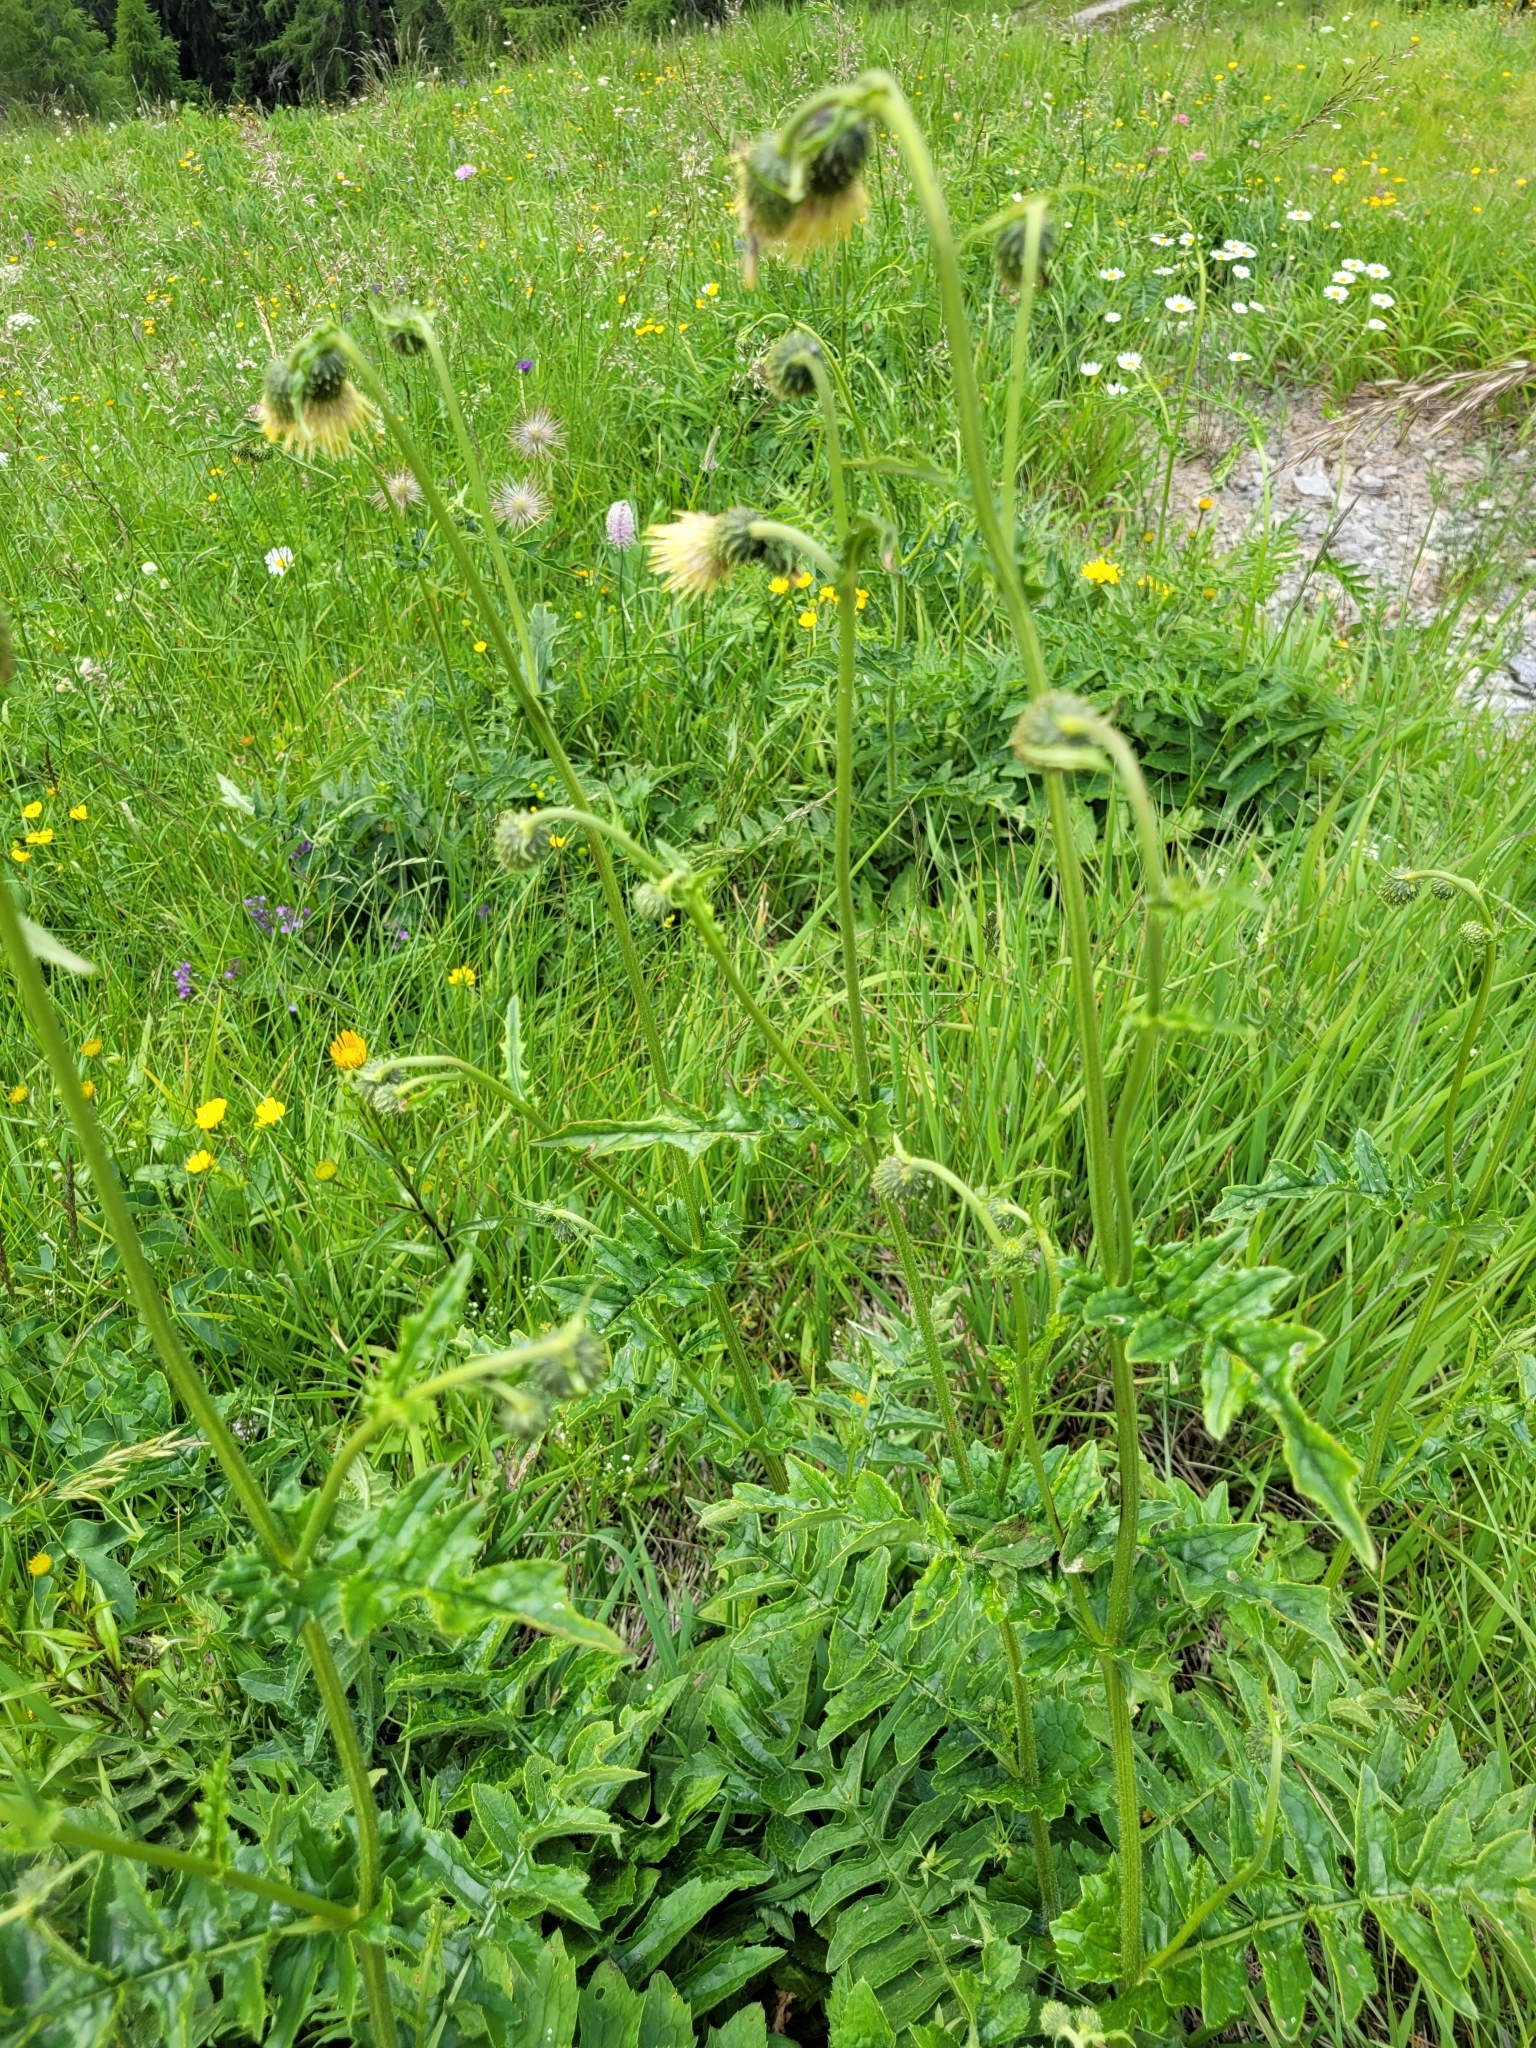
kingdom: Plantae
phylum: Tracheophyta
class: Magnoliopsida
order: Asterales
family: Asteraceae
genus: Cirsium
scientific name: Cirsium erisithales
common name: Yellow thistle
